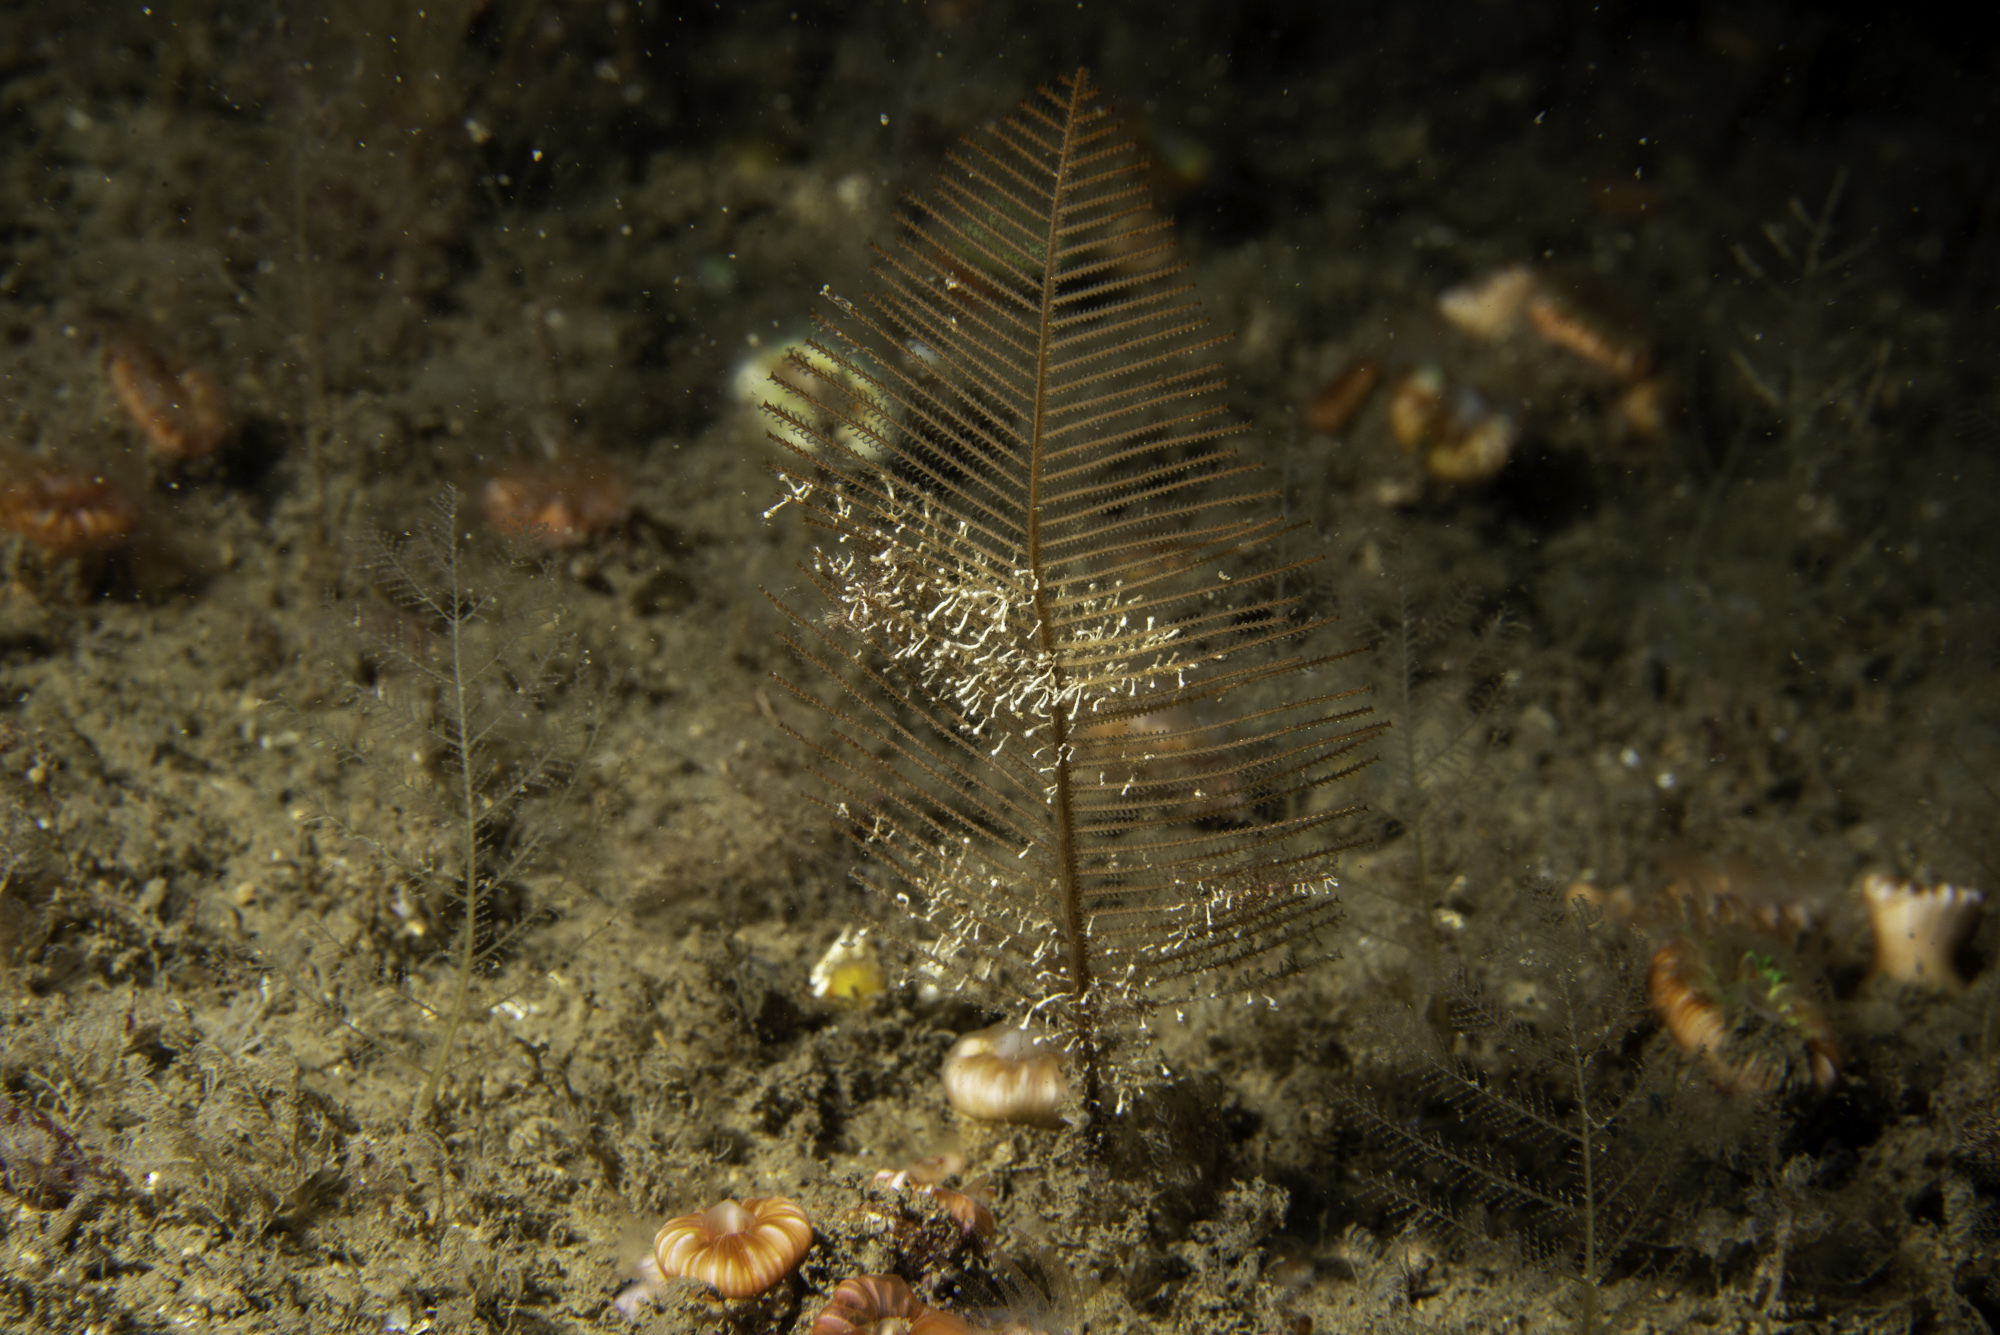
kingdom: Animalia
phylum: Cnidaria
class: Hydrozoa
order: Leptothecata
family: Sertulariidae
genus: Diphasia
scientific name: Diphasia alata
